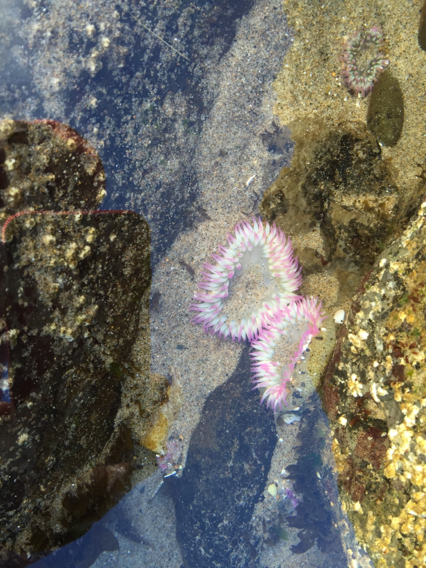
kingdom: Animalia
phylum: Cnidaria
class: Anthozoa
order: Actiniaria
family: Actiniidae
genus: Anthopleura
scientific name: Anthopleura elegantissima
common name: Clonal anemone
